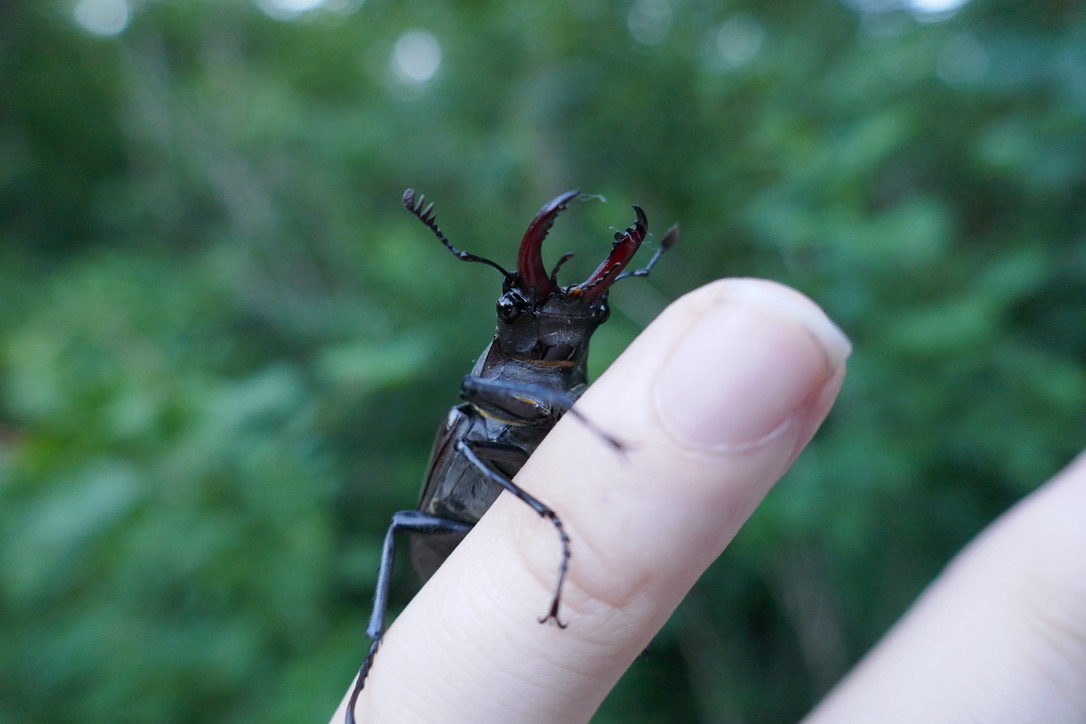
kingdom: Animalia
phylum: Arthropoda
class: Insecta
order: Coleoptera
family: Lucanidae
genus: Lucanus
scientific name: Lucanus cervus
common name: Stag beetle
